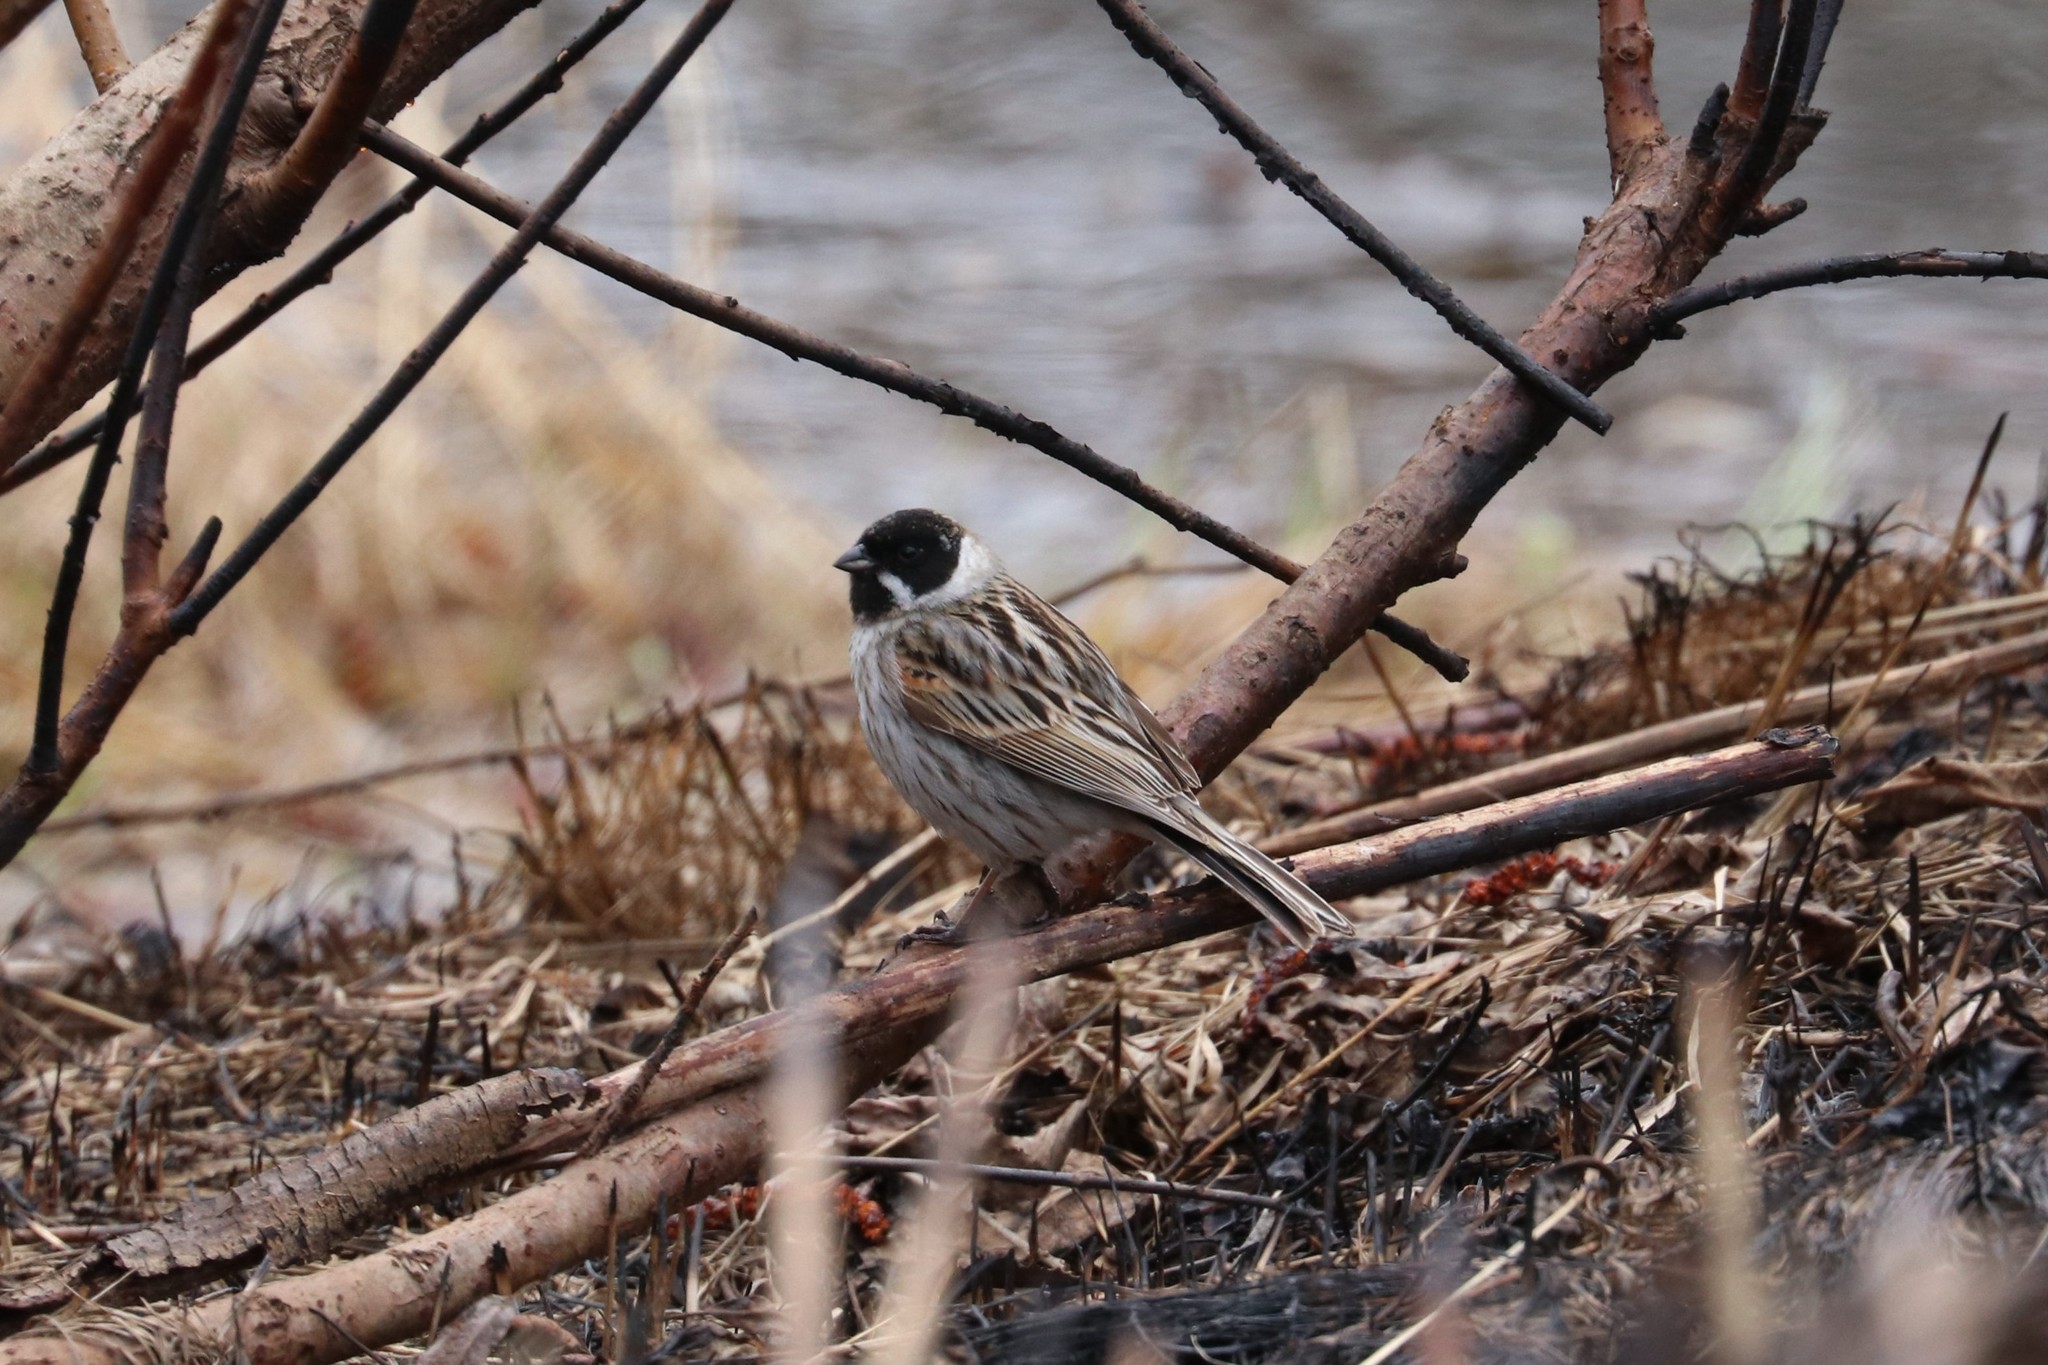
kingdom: Animalia
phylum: Chordata
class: Aves
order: Passeriformes
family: Emberizidae
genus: Emberiza
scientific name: Emberiza schoeniclus
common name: Reed bunting
